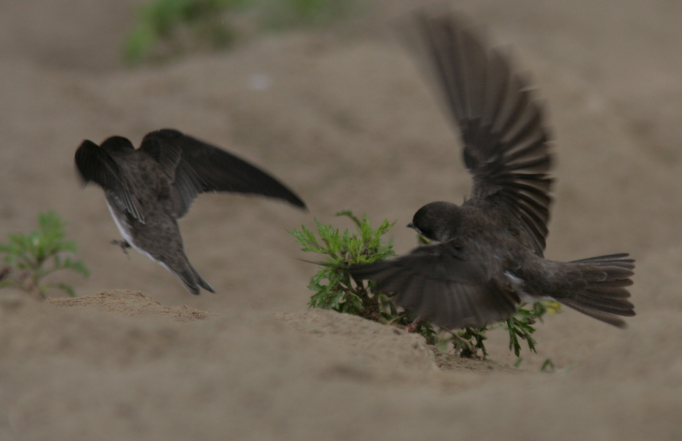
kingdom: Animalia
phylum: Chordata
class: Aves
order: Passeriformes
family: Hirundinidae
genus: Riparia
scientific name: Riparia riparia
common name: Sand martin
